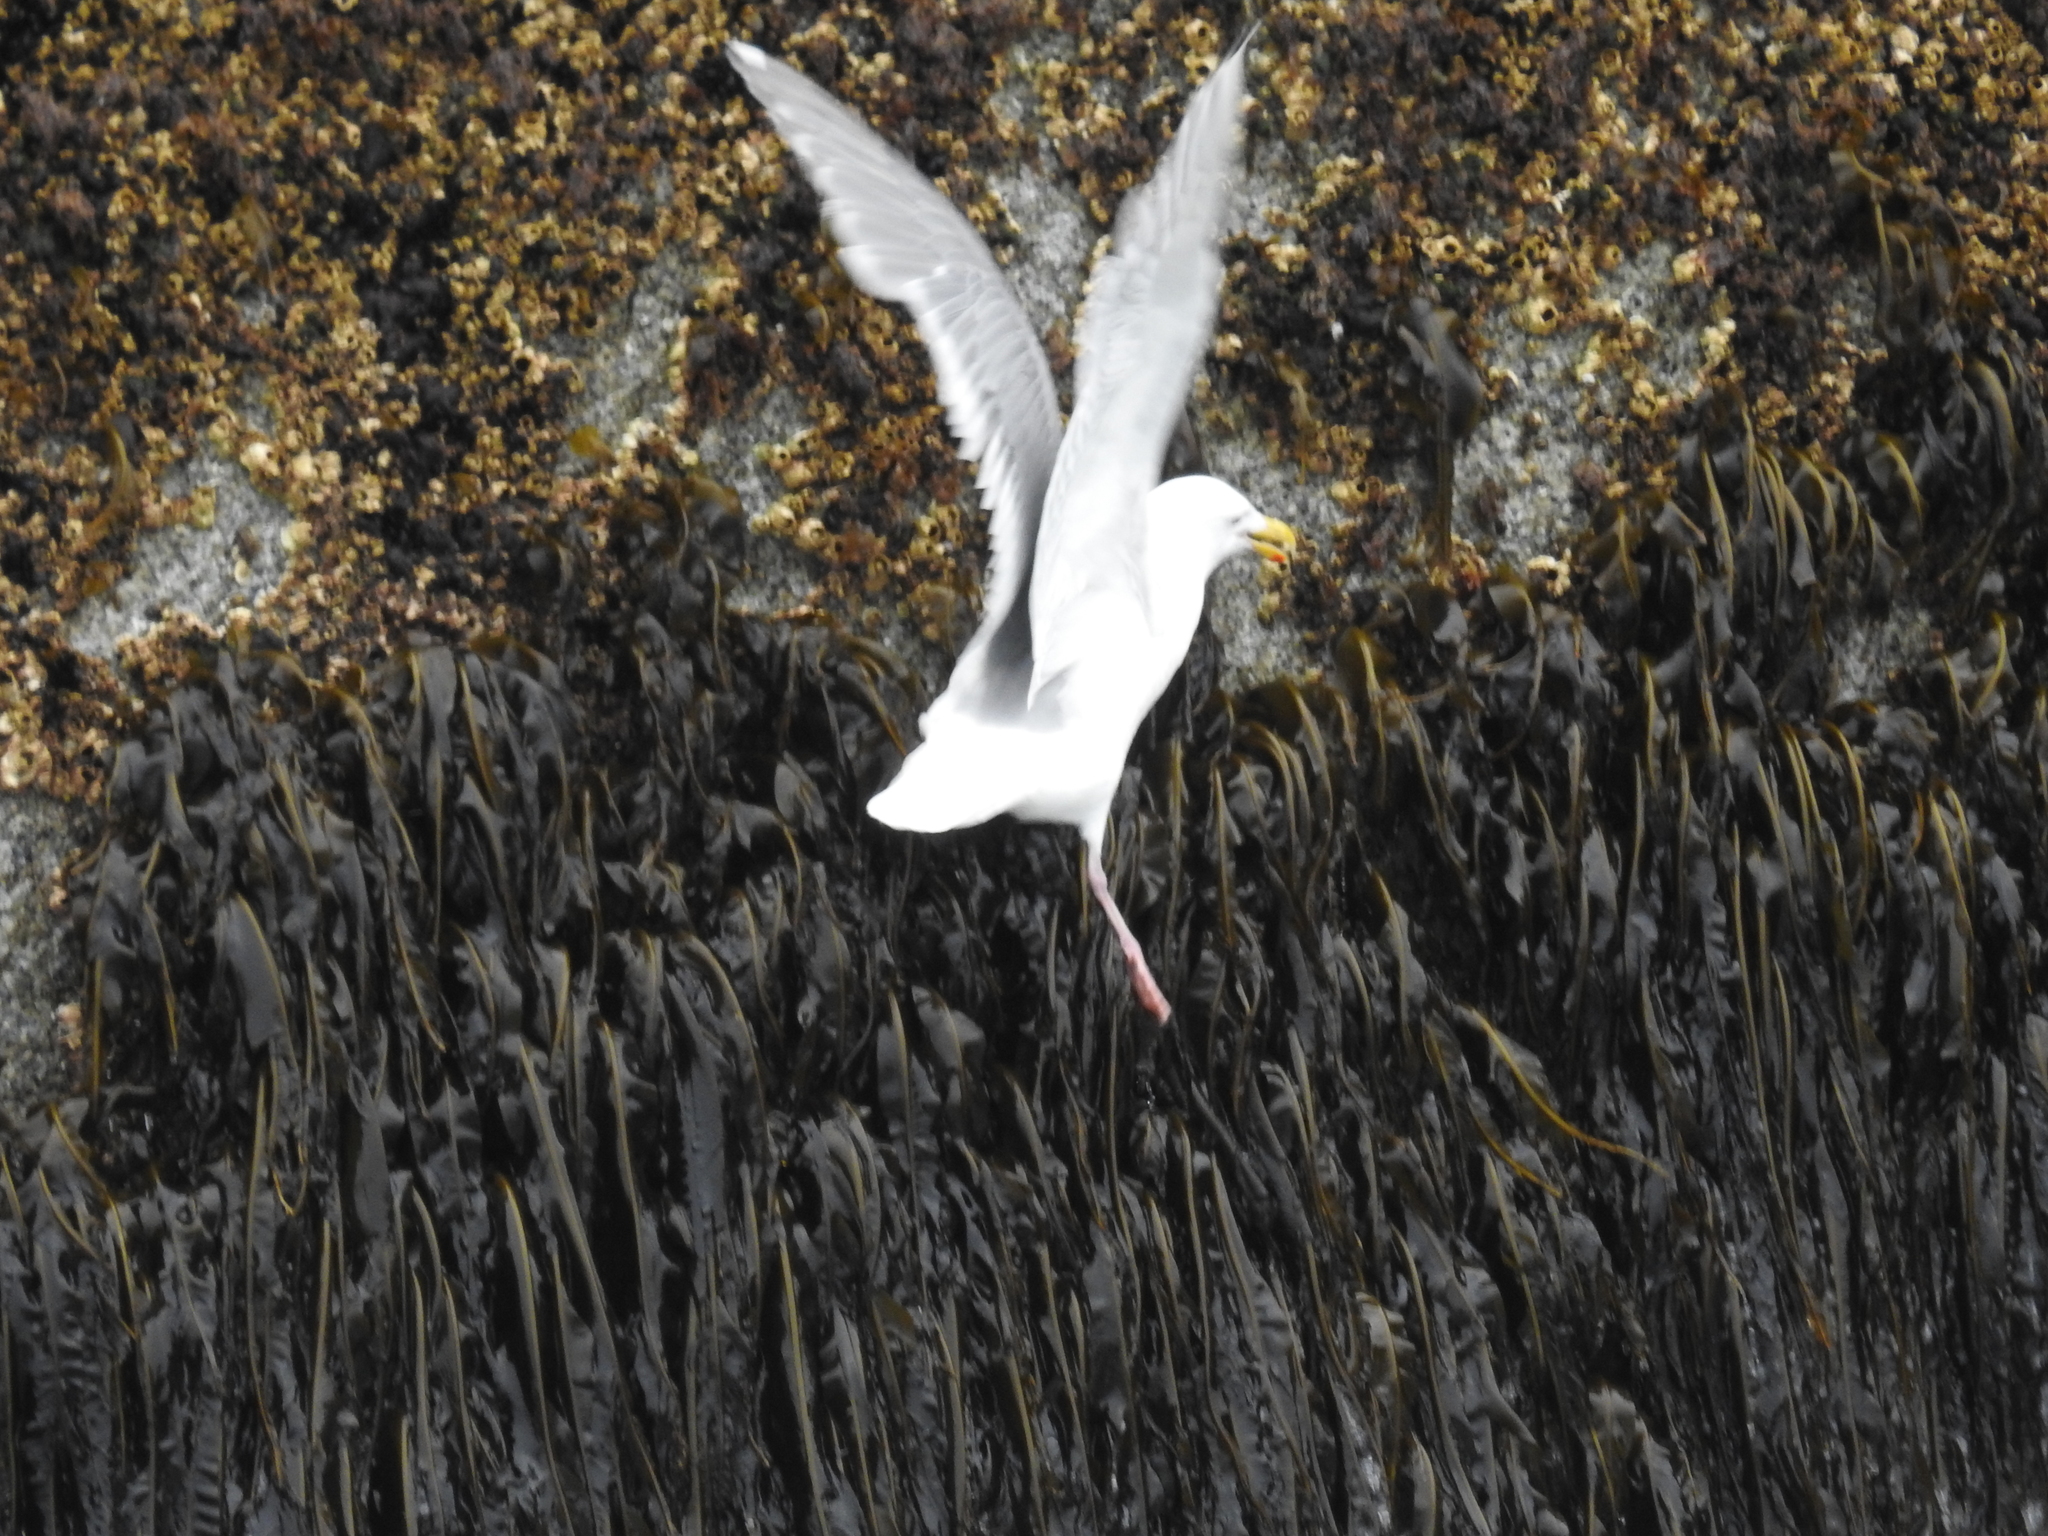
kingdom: Animalia
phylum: Chordata
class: Aves
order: Charadriiformes
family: Laridae
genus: Larus
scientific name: Larus glaucescens
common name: Glaucous-winged gull
